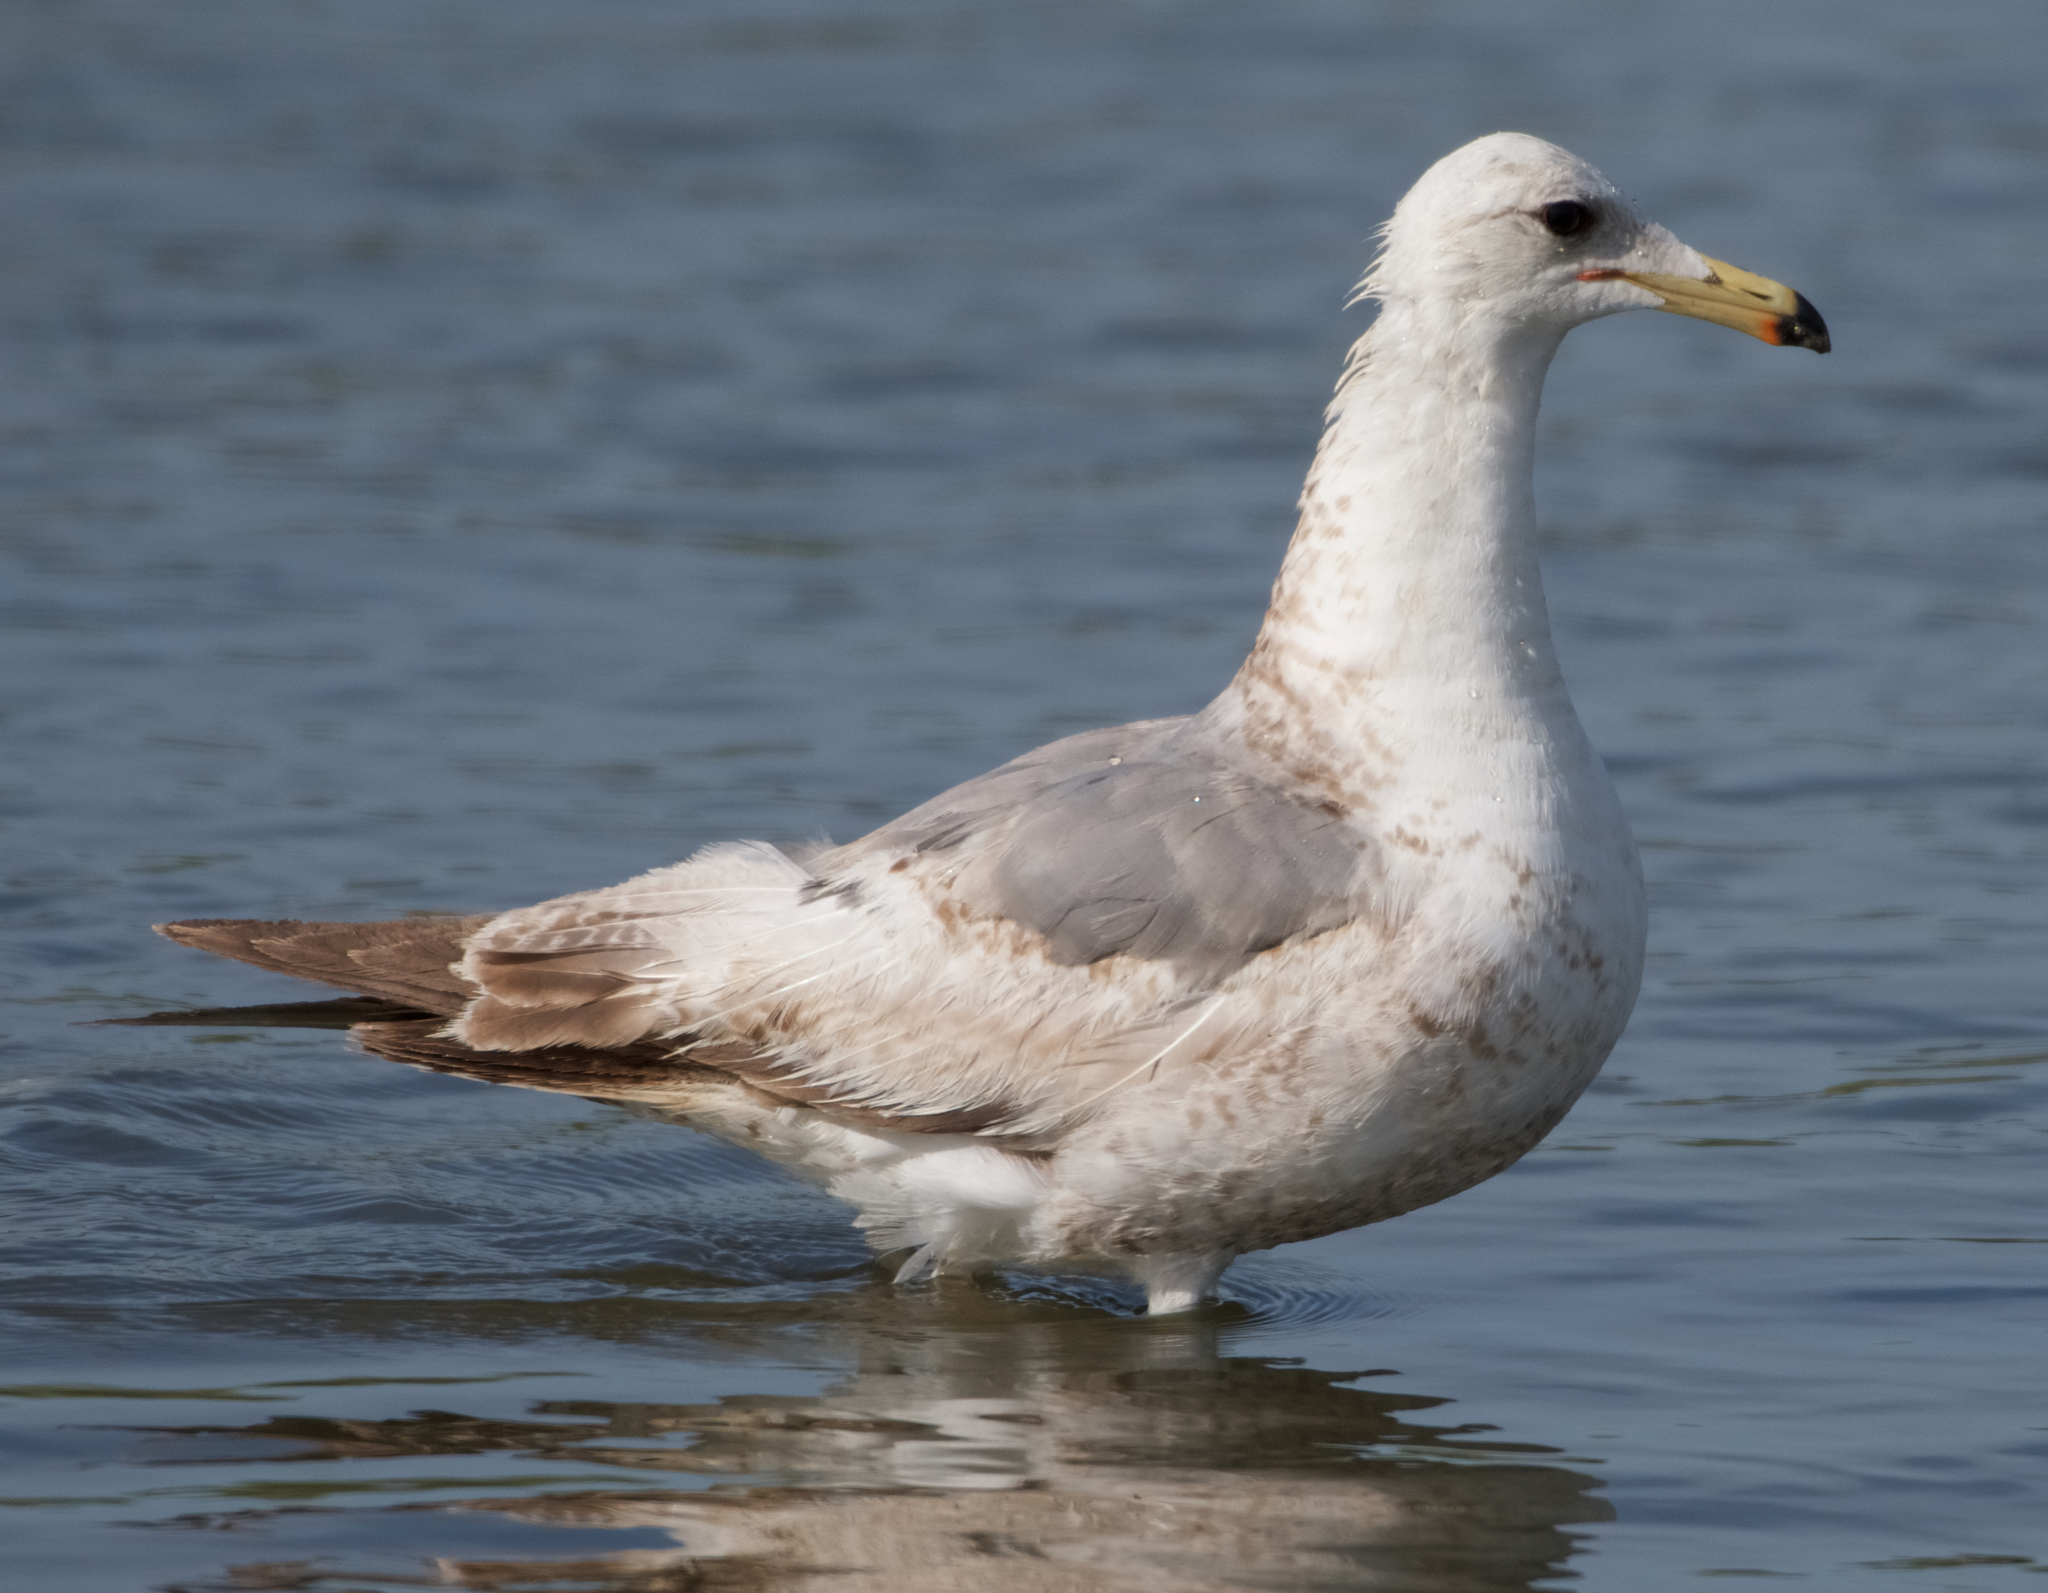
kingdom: Animalia
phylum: Chordata
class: Aves
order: Charadriiformes
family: Laridae
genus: Larus
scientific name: Larus californicus
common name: California gull
